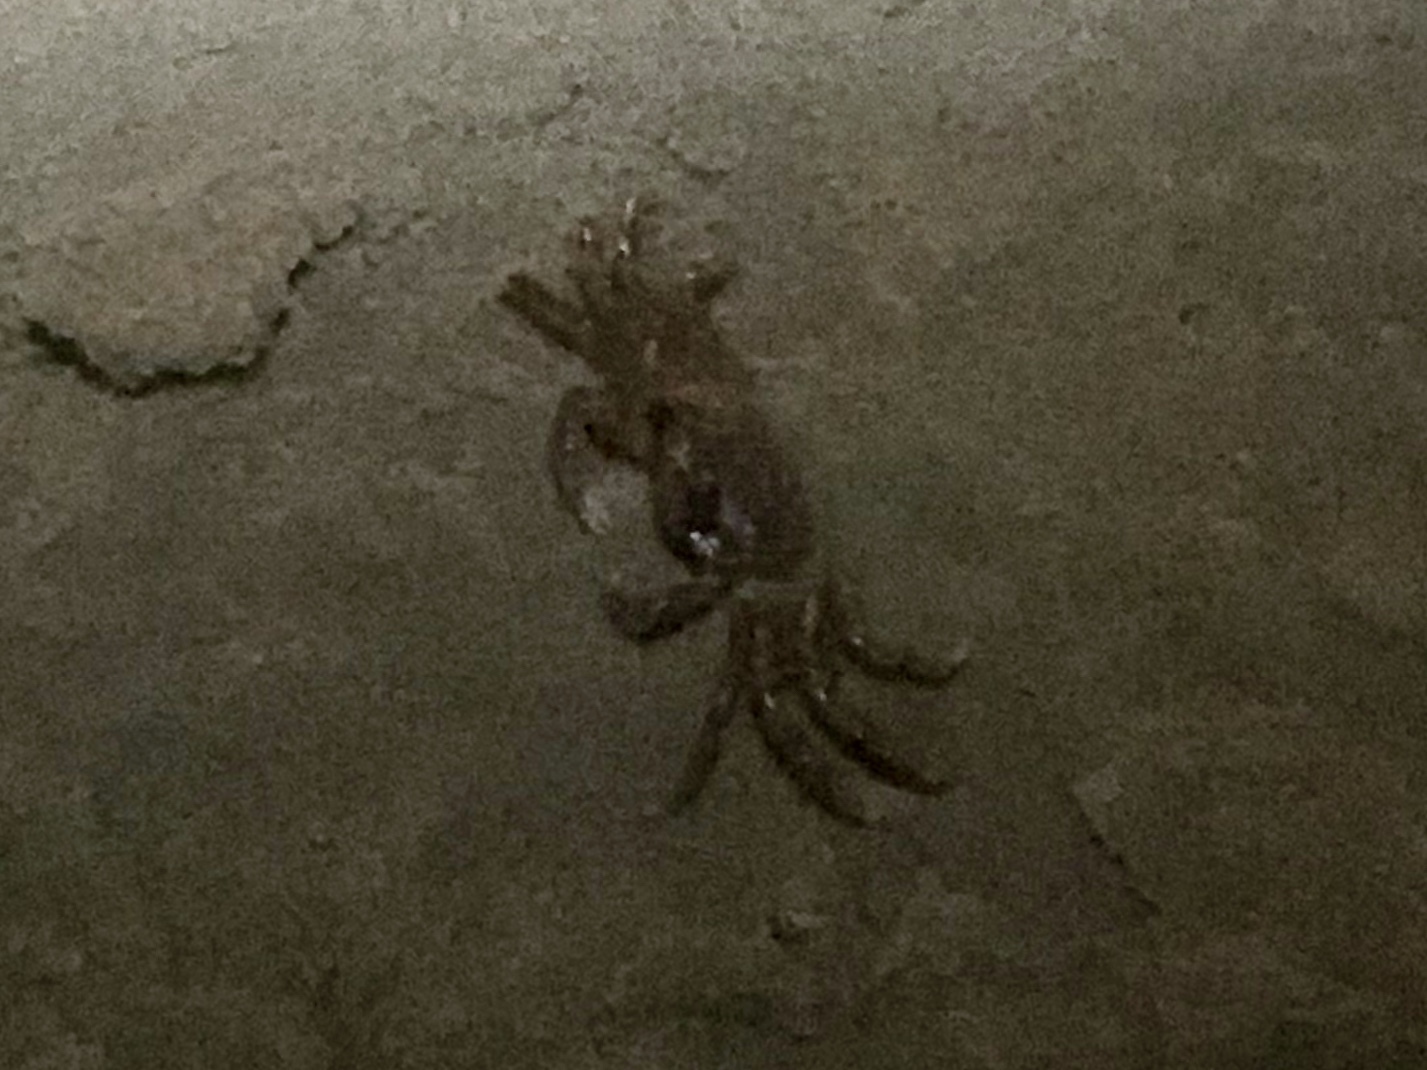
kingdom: Animalia
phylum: Arthropoda
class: Malacostraca
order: Decapoda
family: Ocypodidae
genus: Ocypode
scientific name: Ocypode quadrata
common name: Ghost crab
